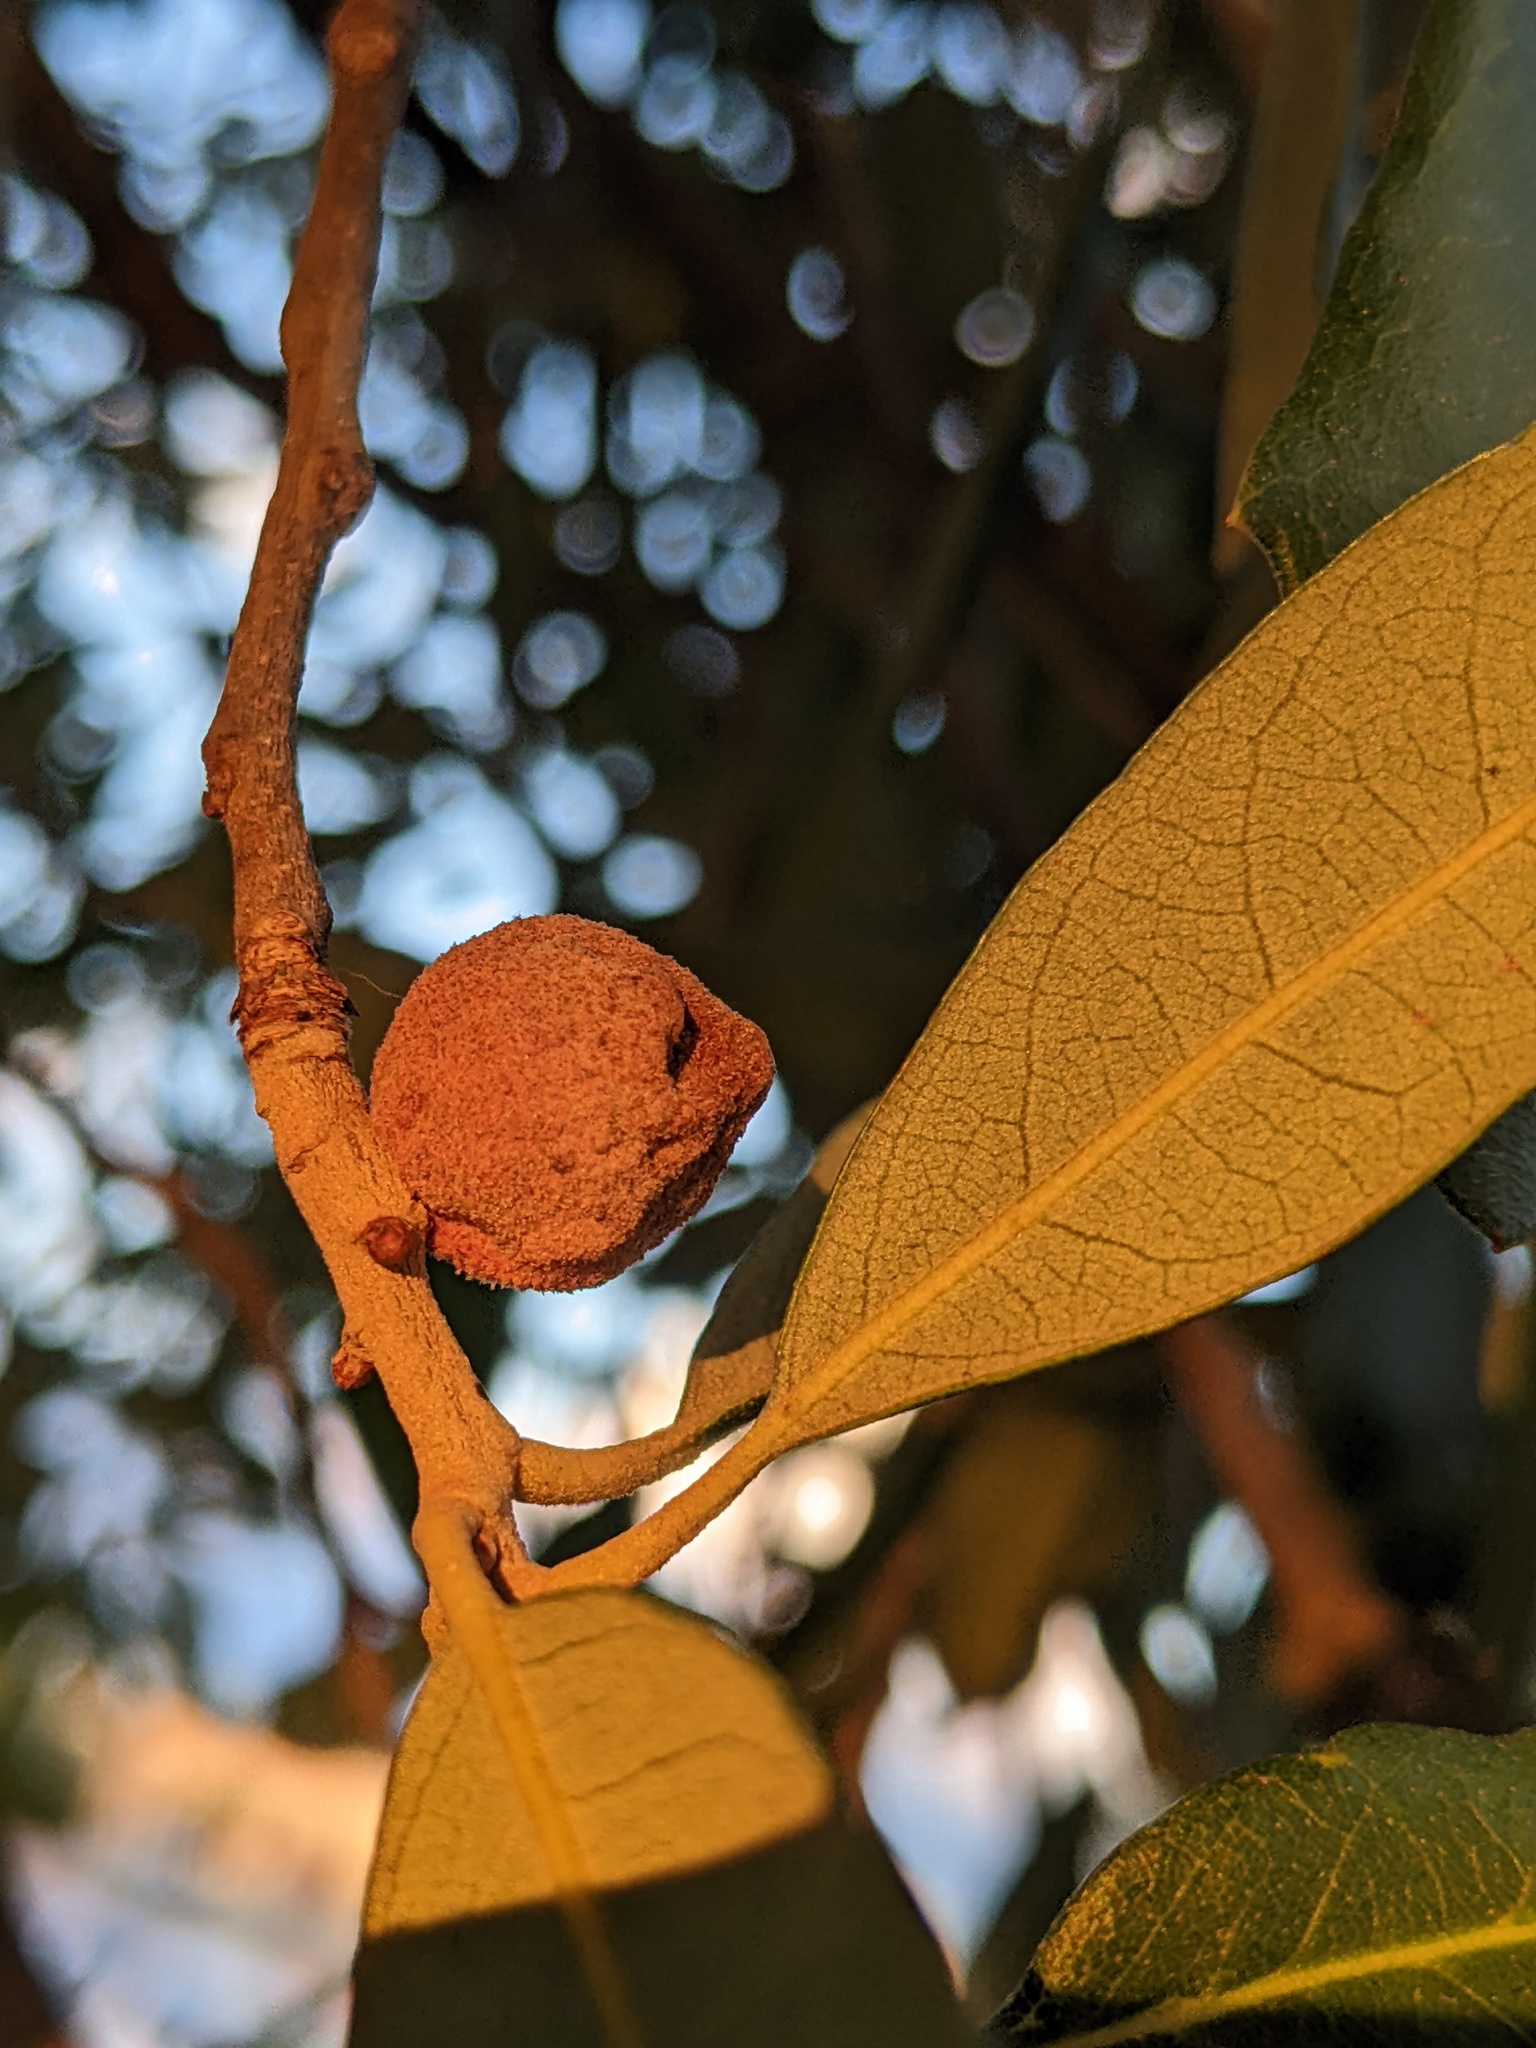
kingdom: Animalia
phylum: Arthropoda
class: Insecta
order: Hymenoptera
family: Cynipidae
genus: Disholcaspis
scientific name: Disholcaspis
